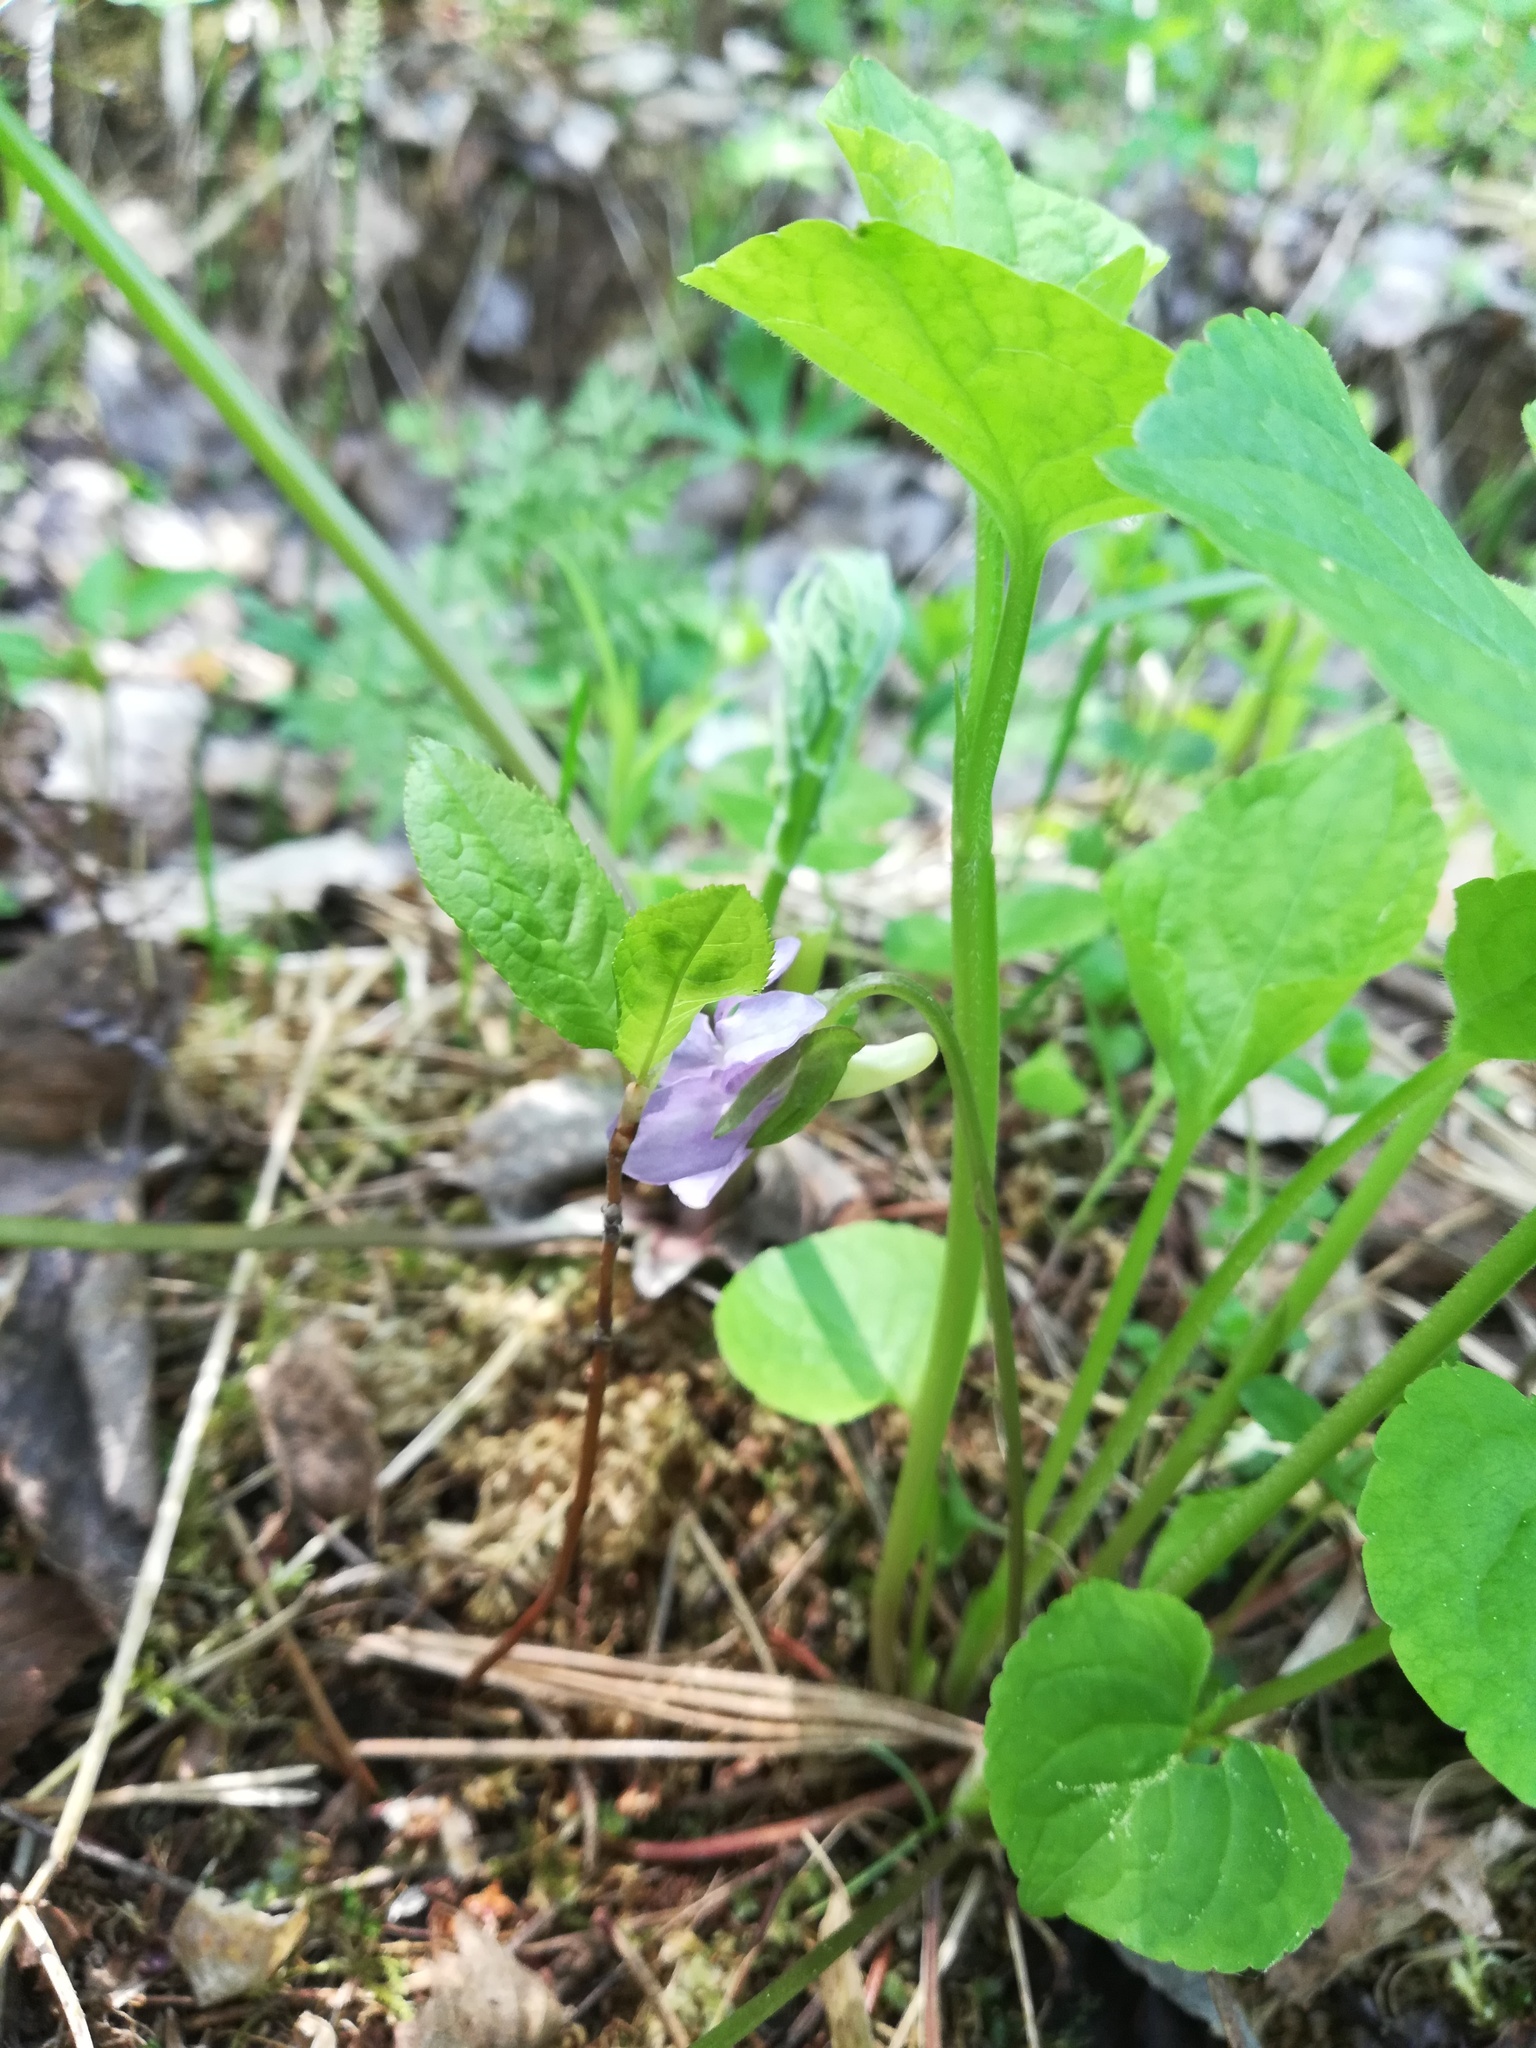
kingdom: Plantae
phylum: Tracheophyta
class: Magnoliopsida
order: Malpighiales
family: Violaceae
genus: Viola
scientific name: Viola mirabilis
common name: Wonder violet
